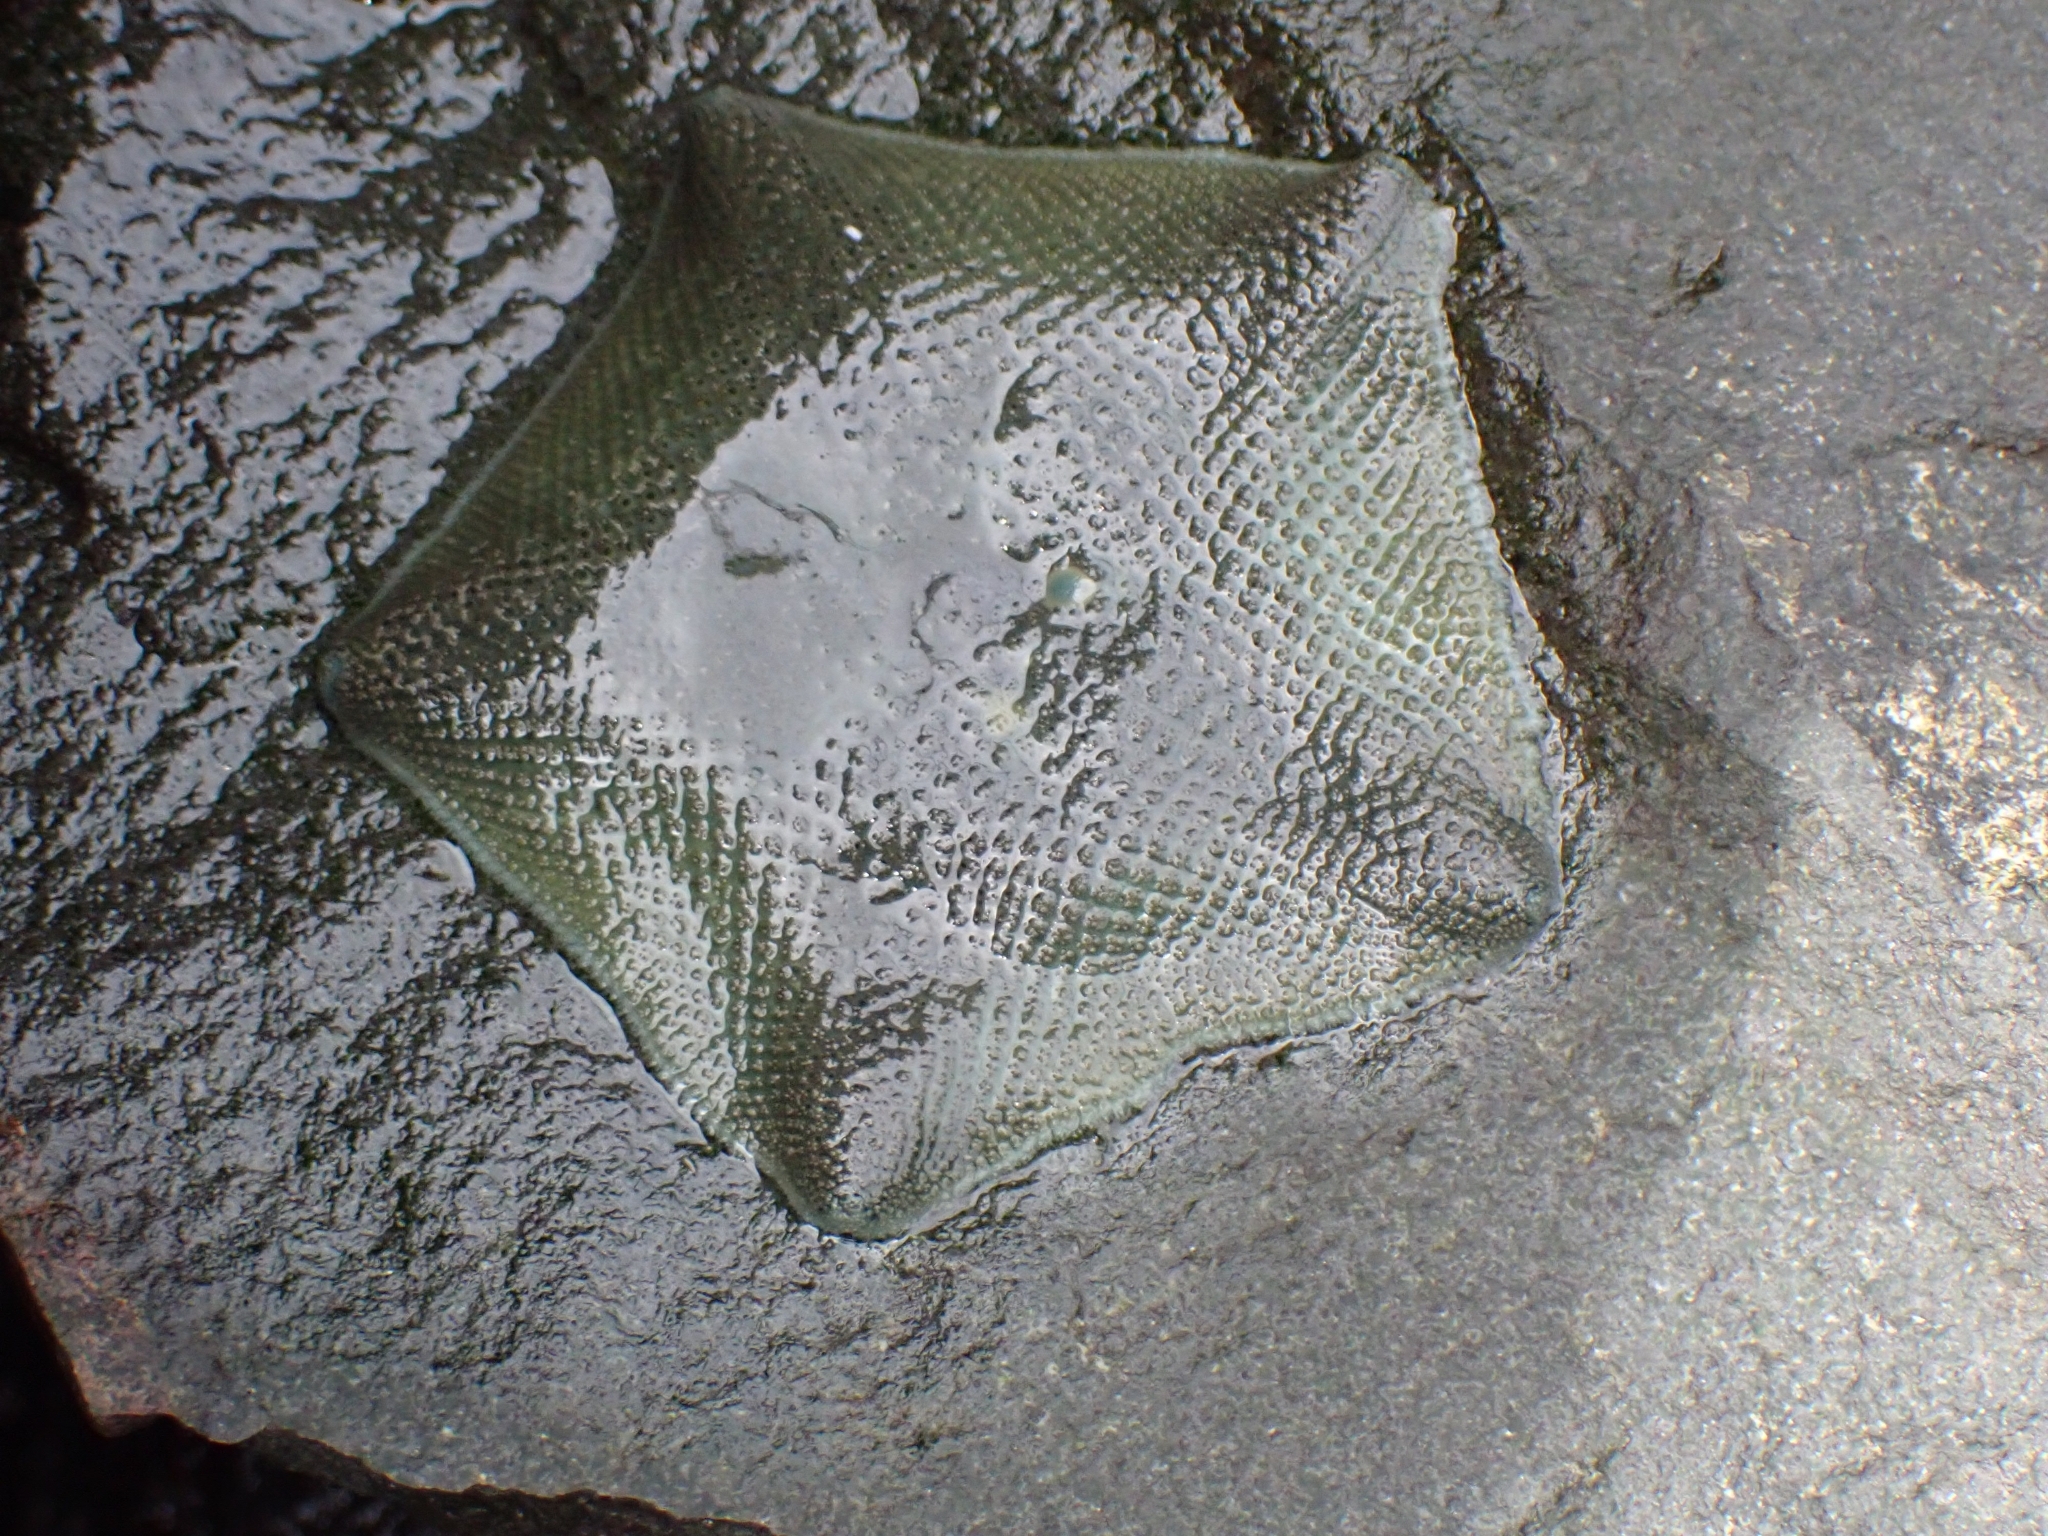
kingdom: Animalia
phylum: Echinodermata
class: Asteroidea
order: Valvatida
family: Asterinidae
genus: Patiriella
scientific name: Patiriella regularis
